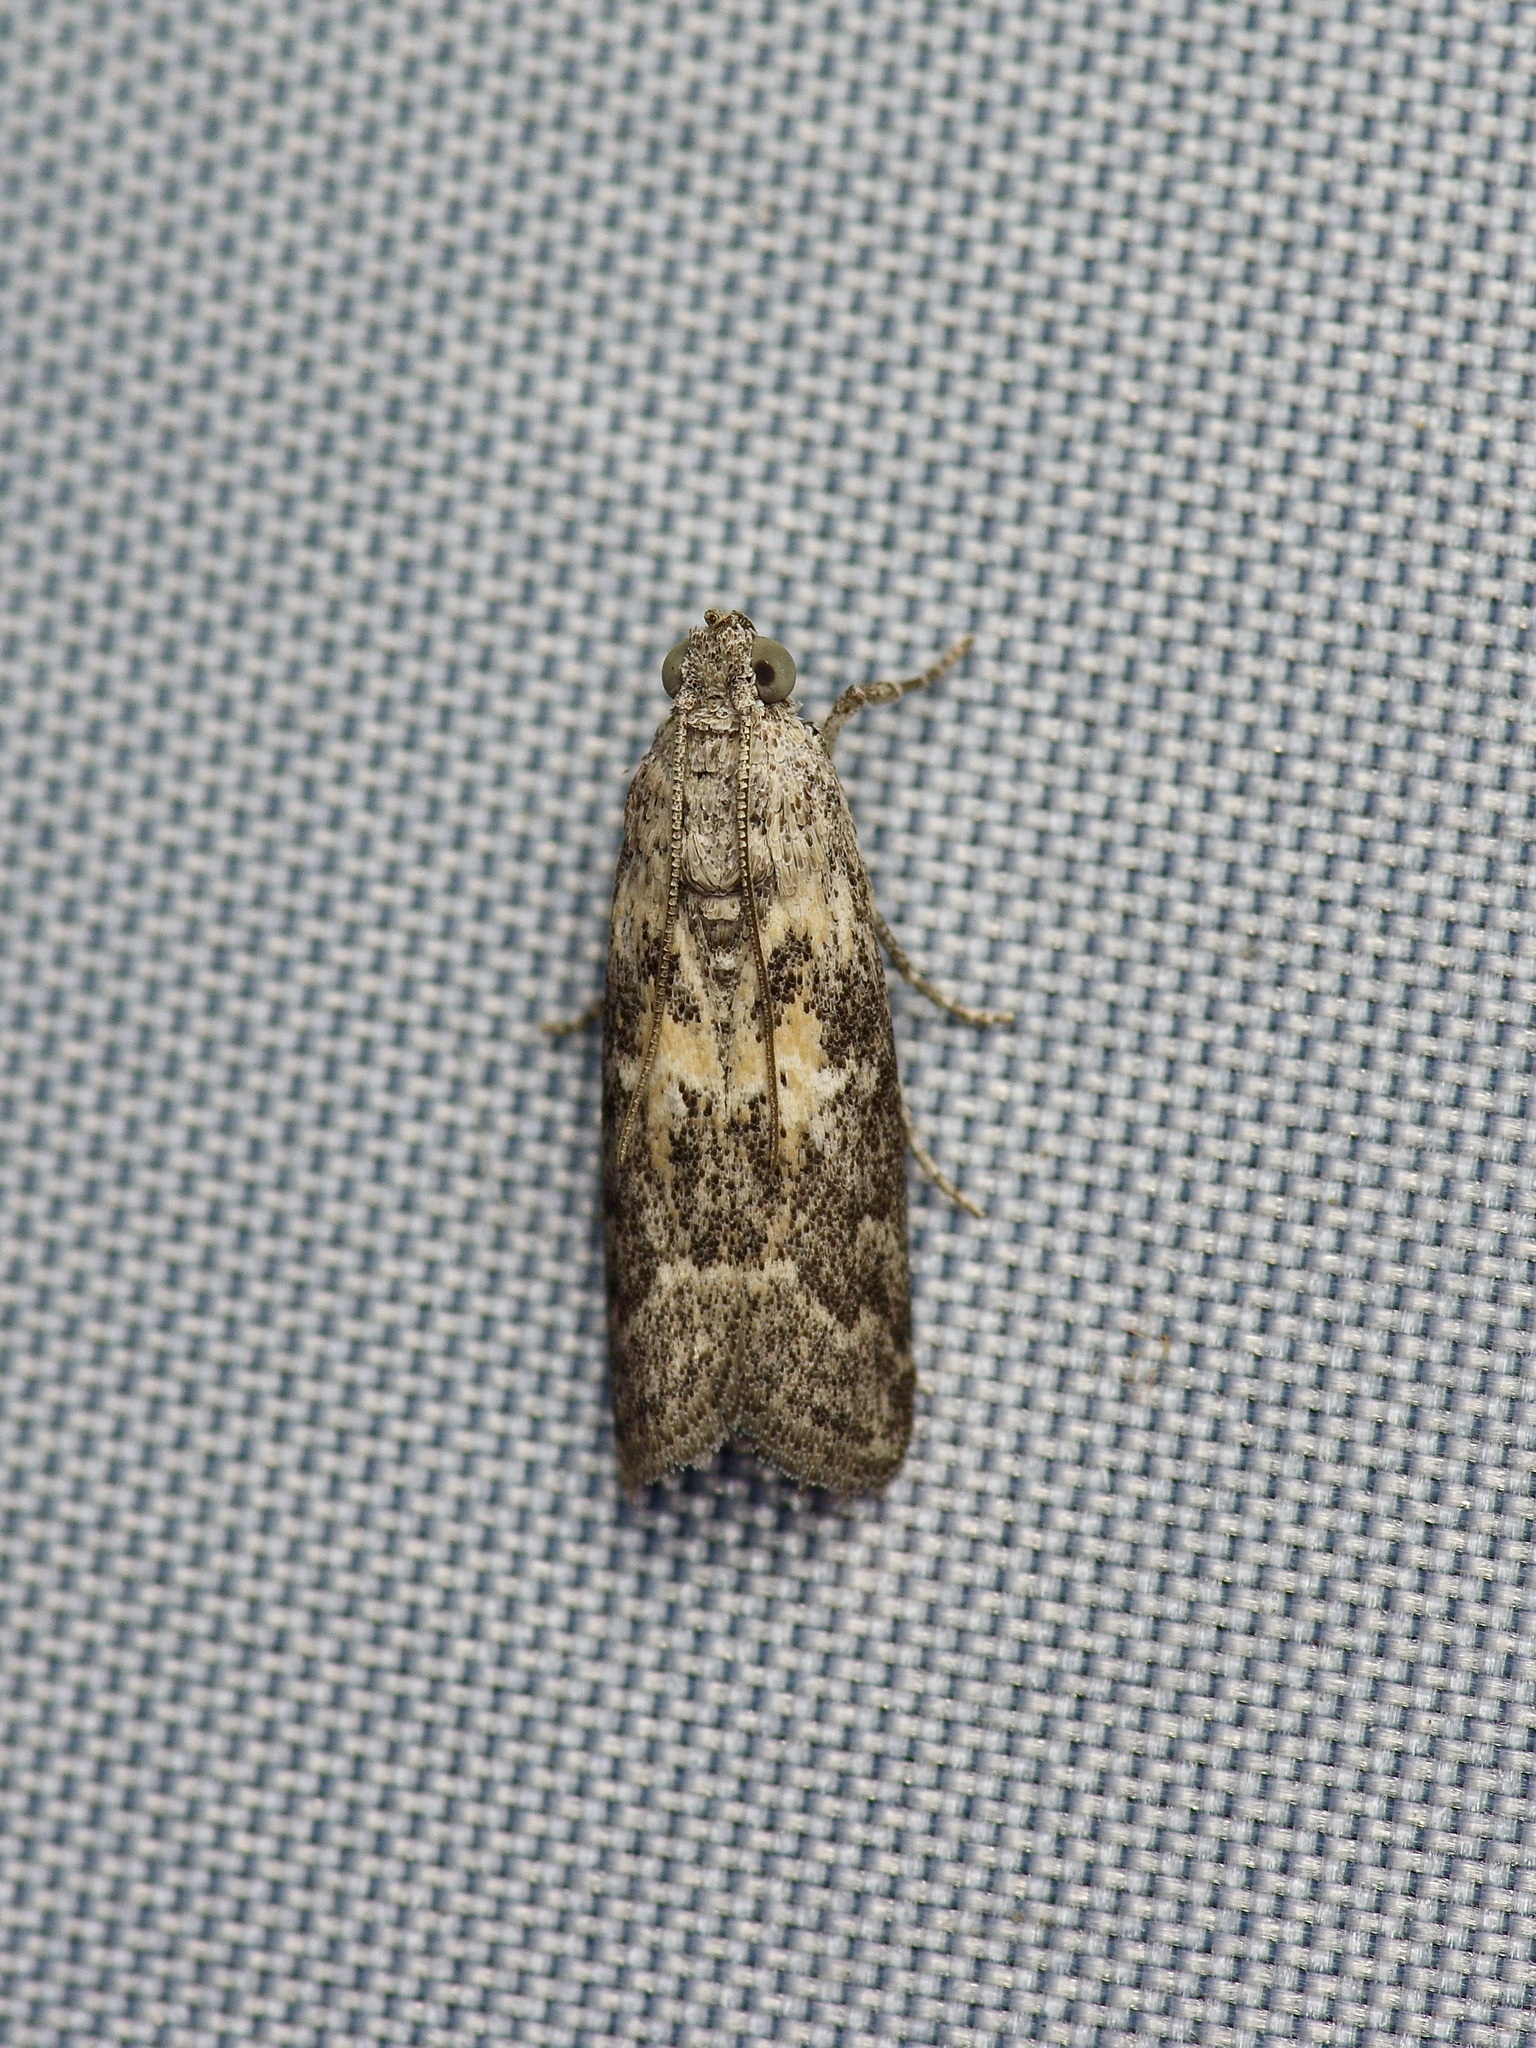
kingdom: Animalia
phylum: Arthropoda
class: Insecta
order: Lepidoptera
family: Pyralidae
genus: Tacoma
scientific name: Tacoma feriella
